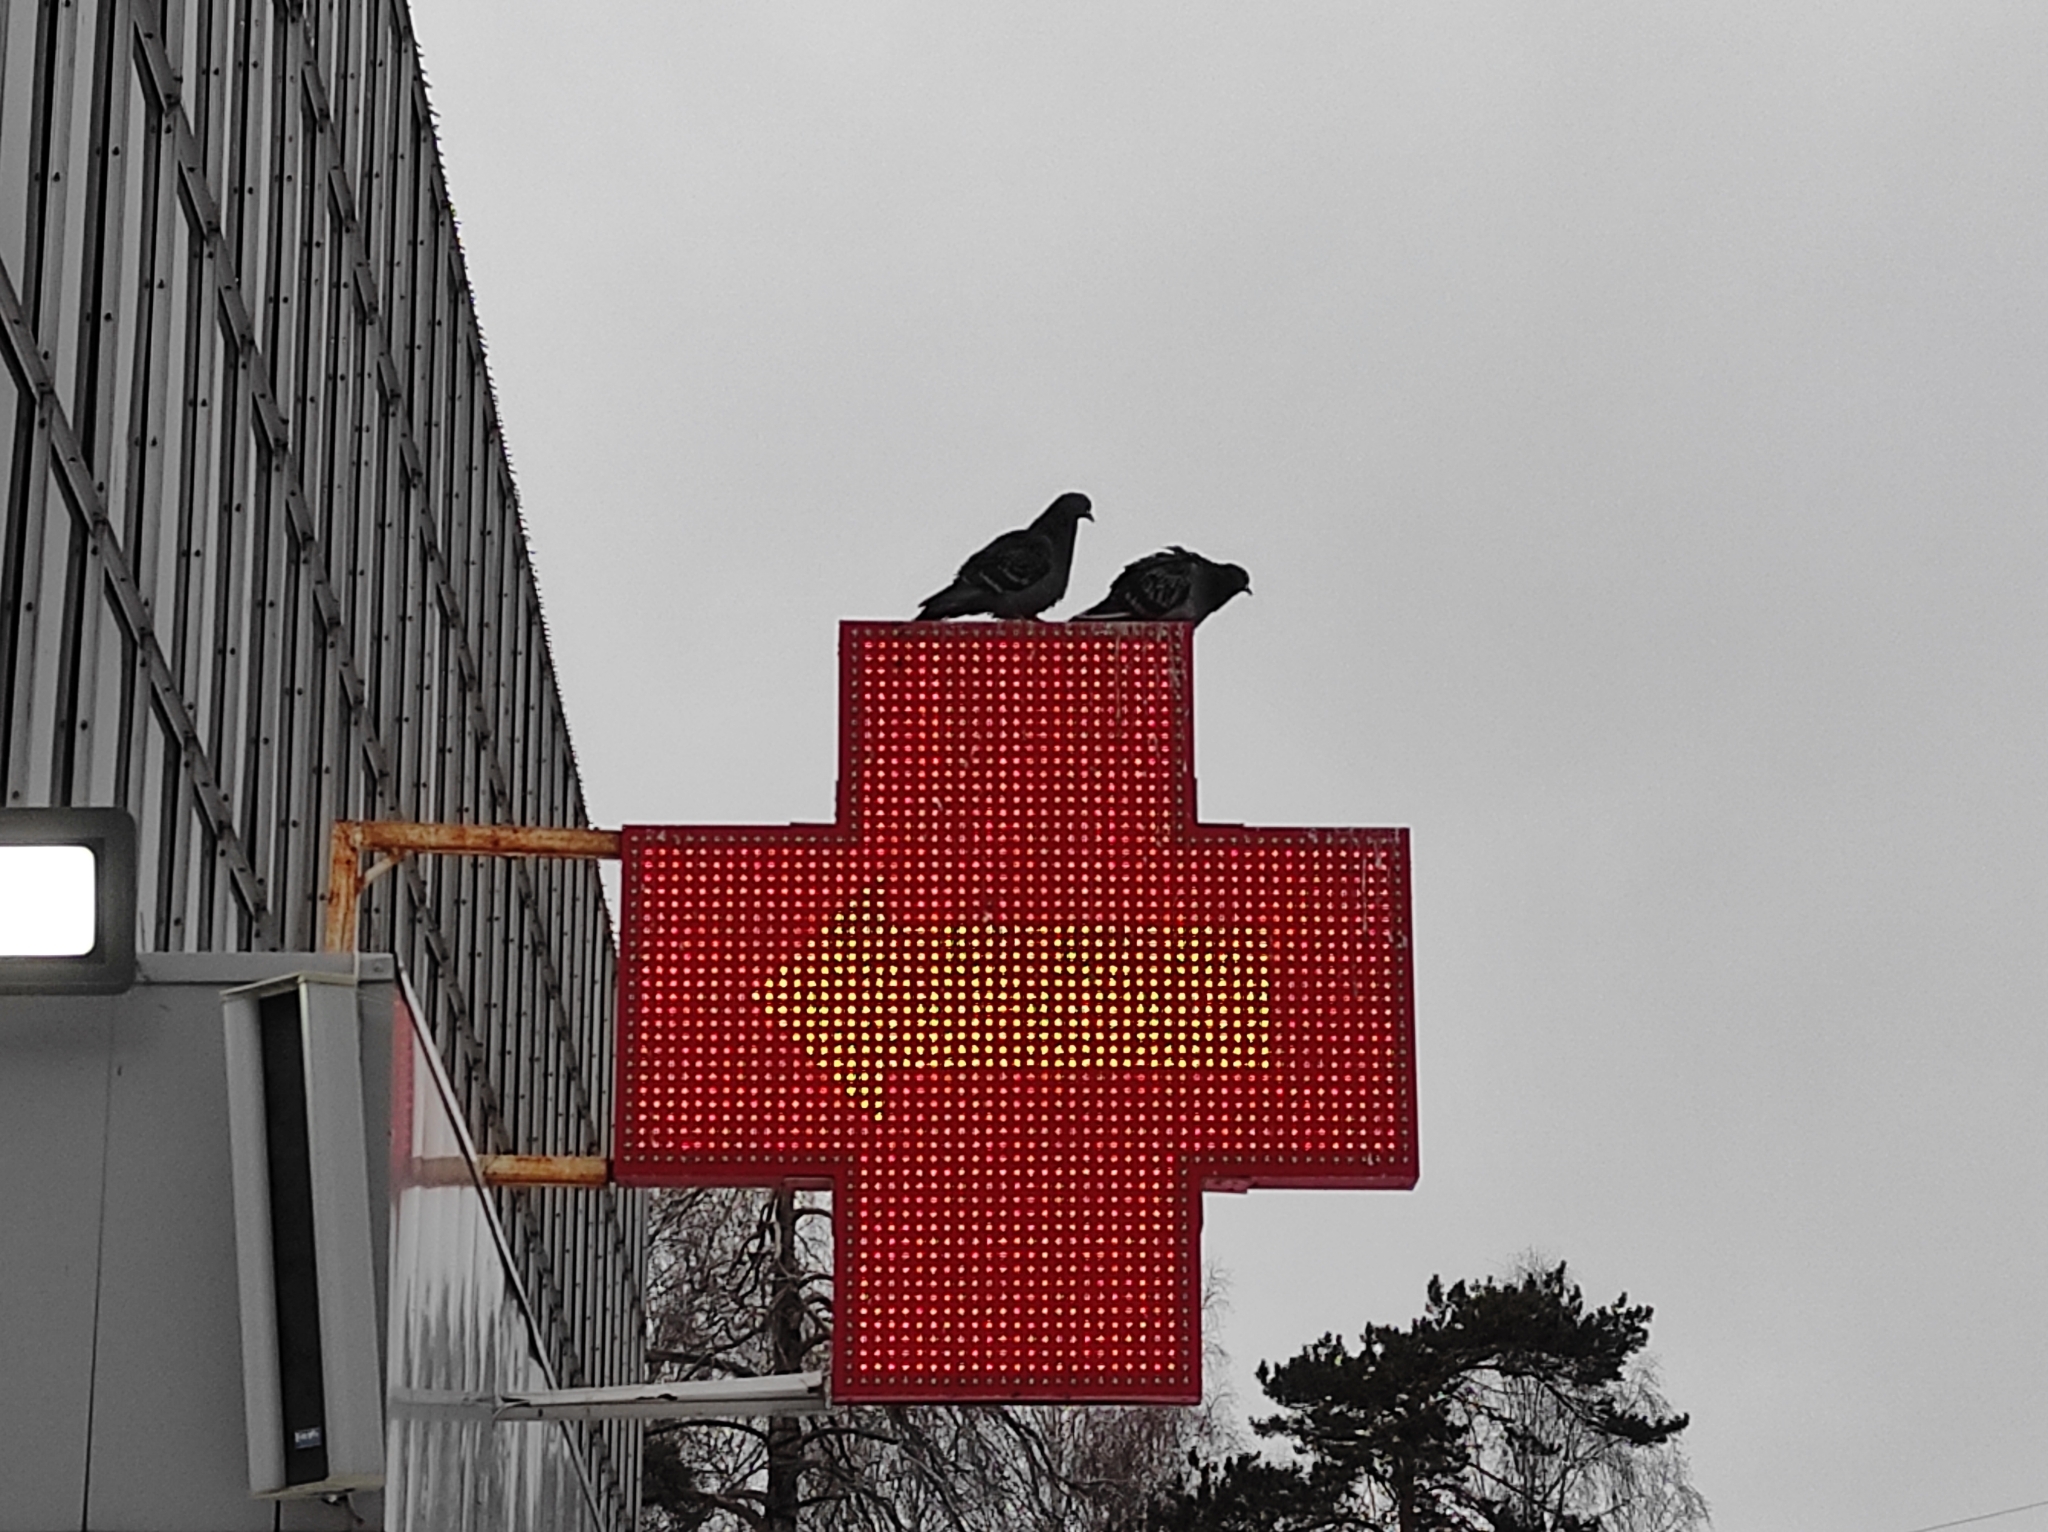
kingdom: Animalia
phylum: Chordata
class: Aves
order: Columbiformes
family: Columbidae
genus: Columba
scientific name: Columba livia
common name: Rock pigeon
